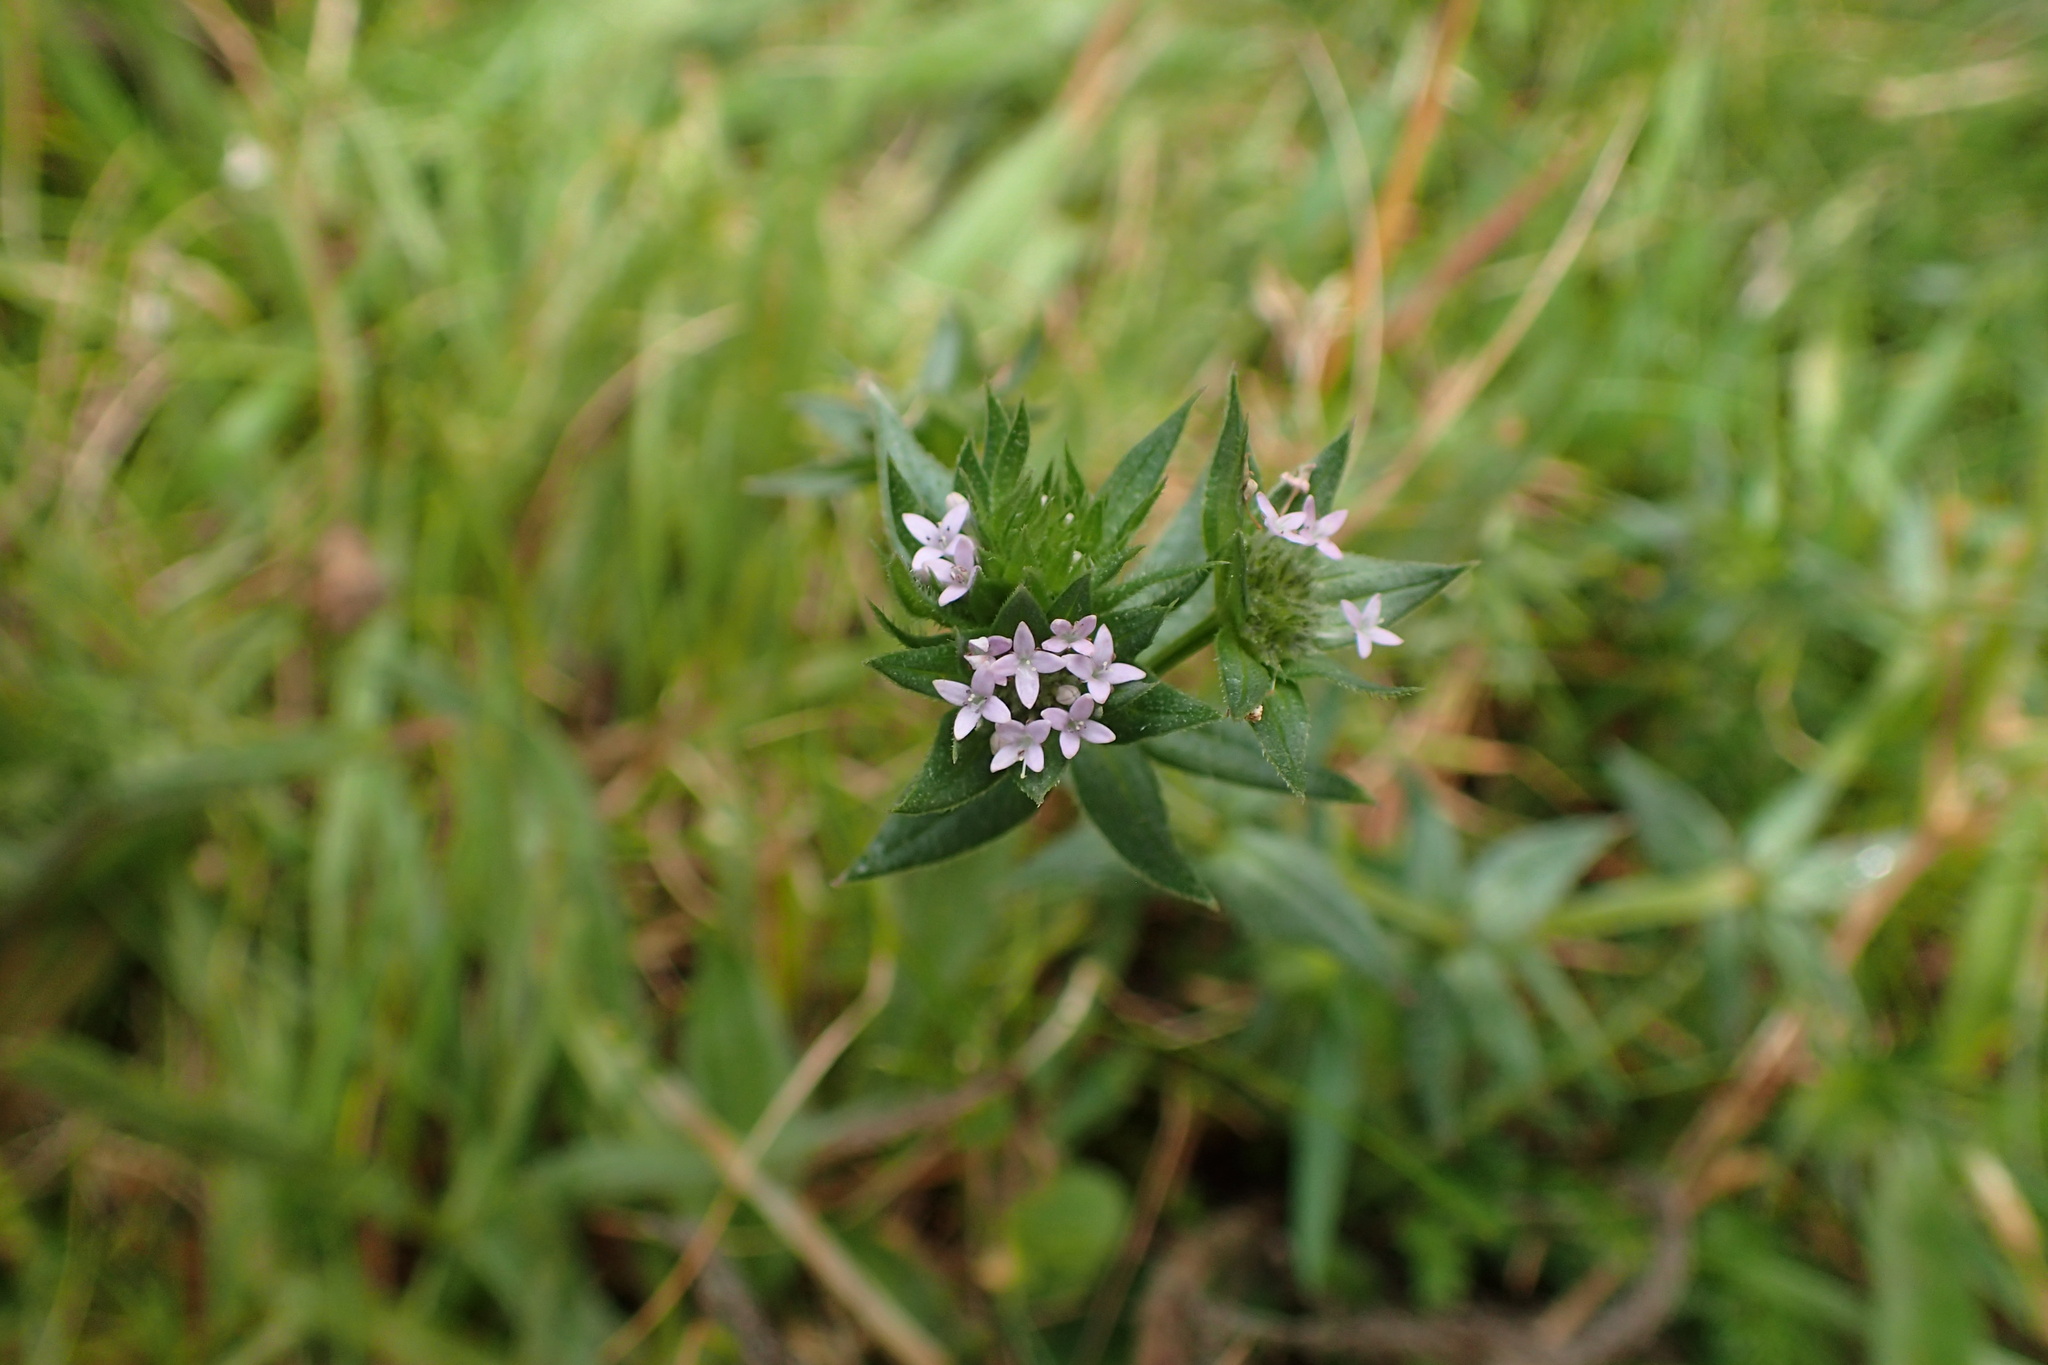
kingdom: Plantae
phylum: Tracheophyta
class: Magnoliopsida
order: Gentianales
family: Rubiaceae
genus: Sherardia
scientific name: Sherardia arvensis
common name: Field madder
